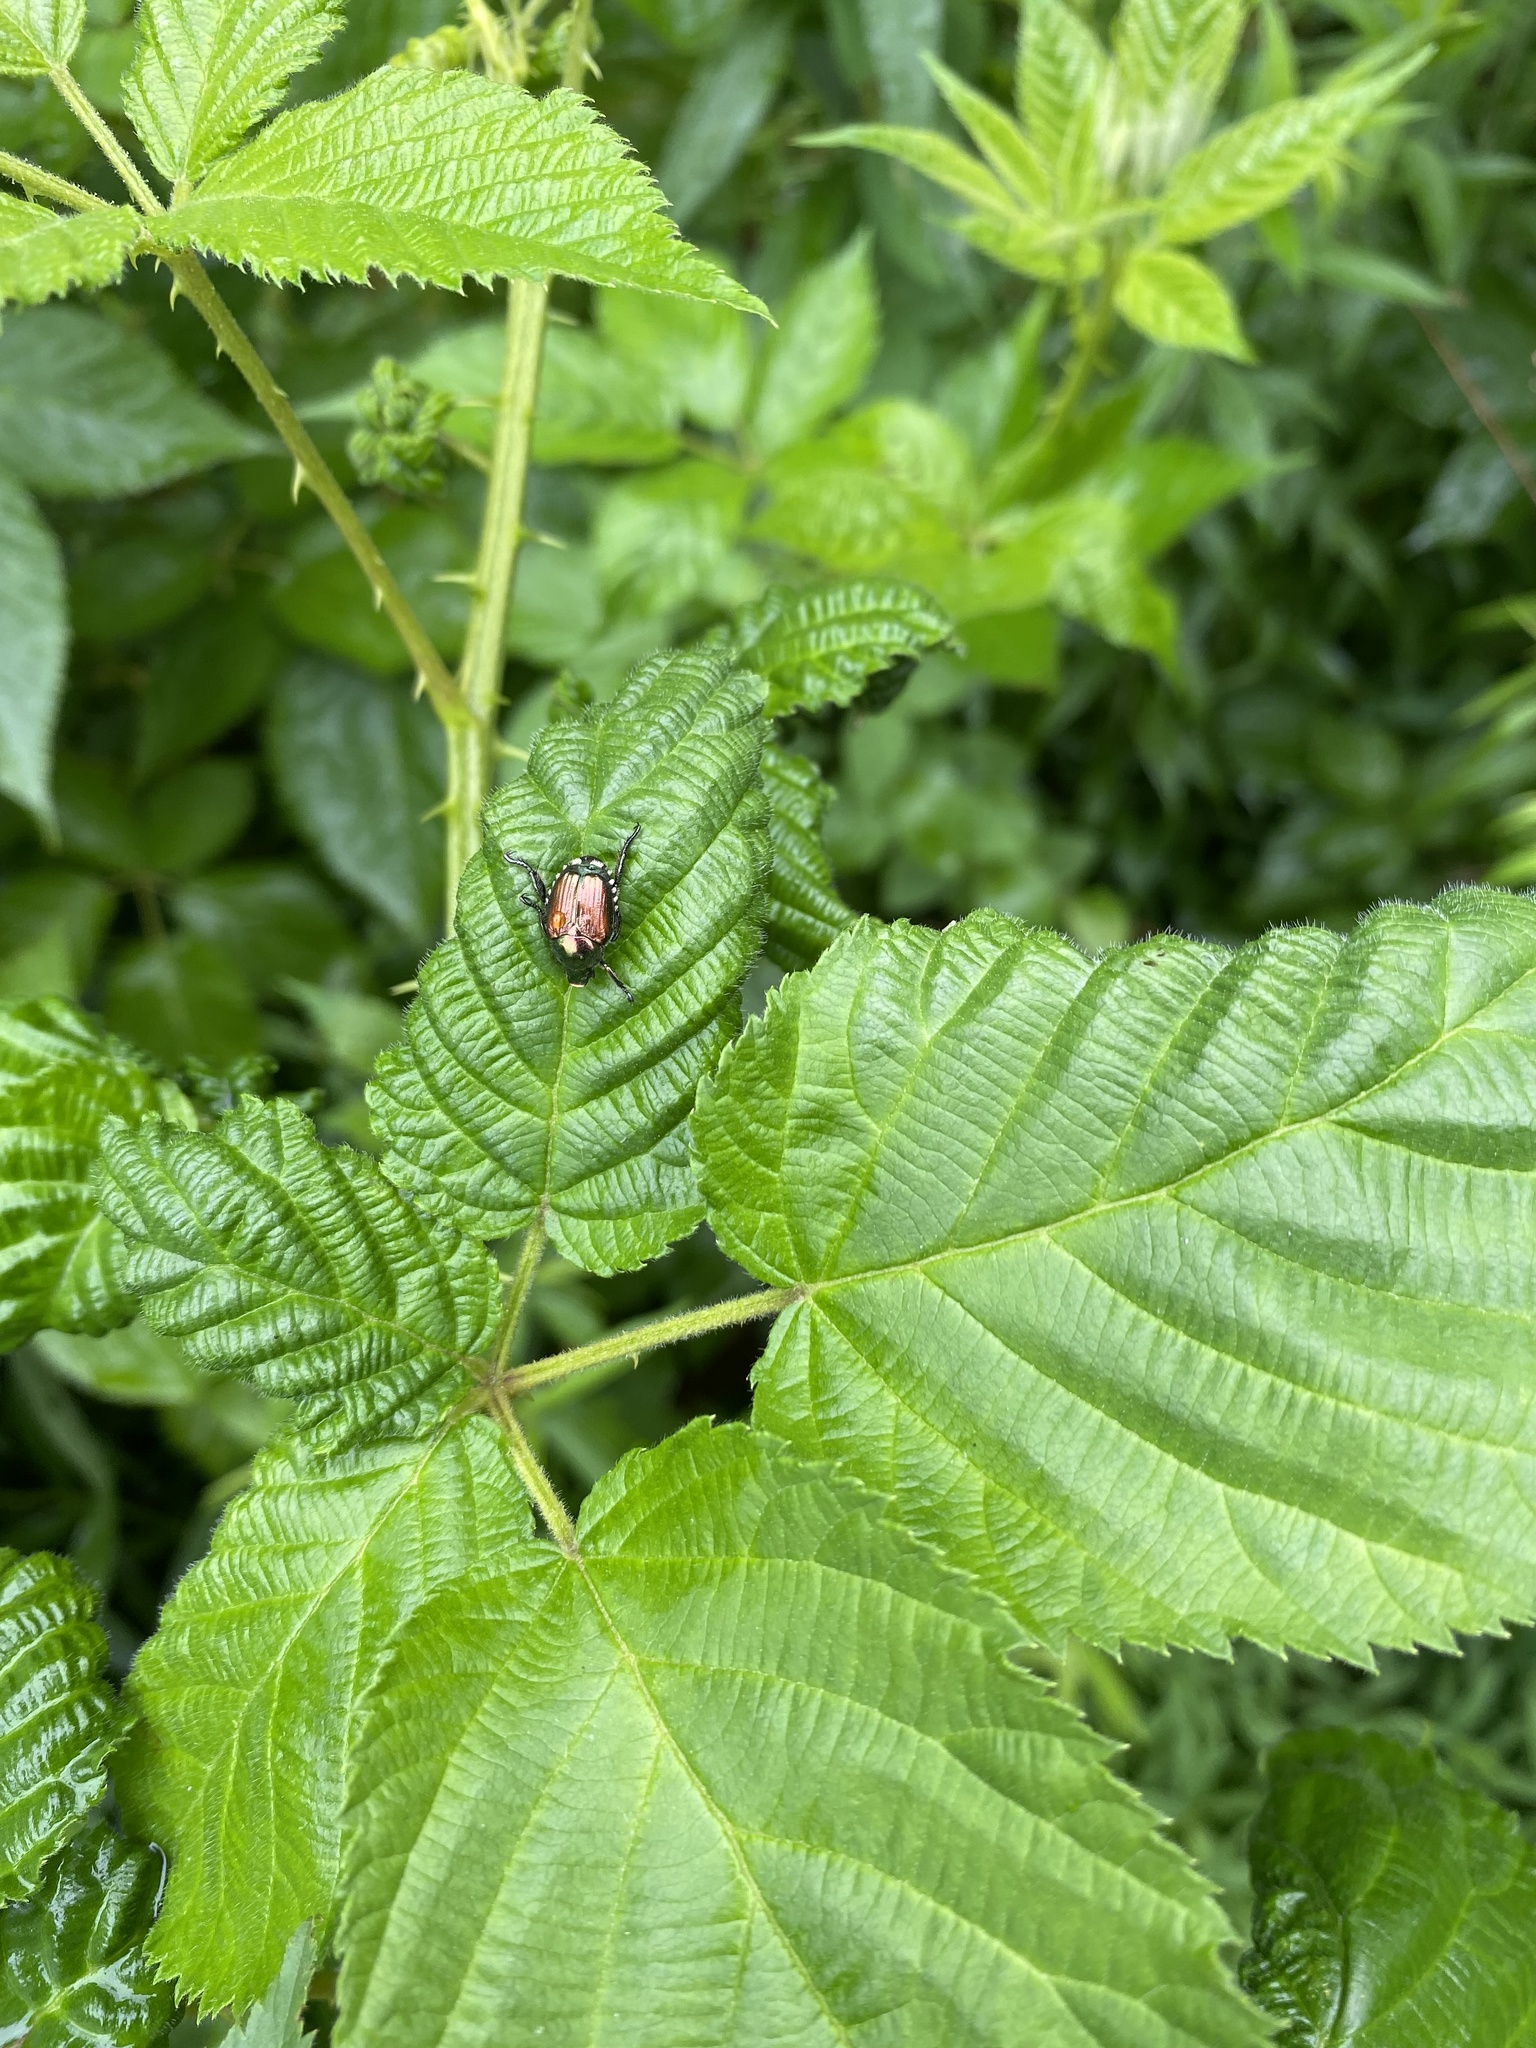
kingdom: Animalia
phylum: Arthropoda
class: Insecta
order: Coleoptera
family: Scarabaeidae
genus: Popillia
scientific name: Popillia japonica
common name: Japanese beetle
